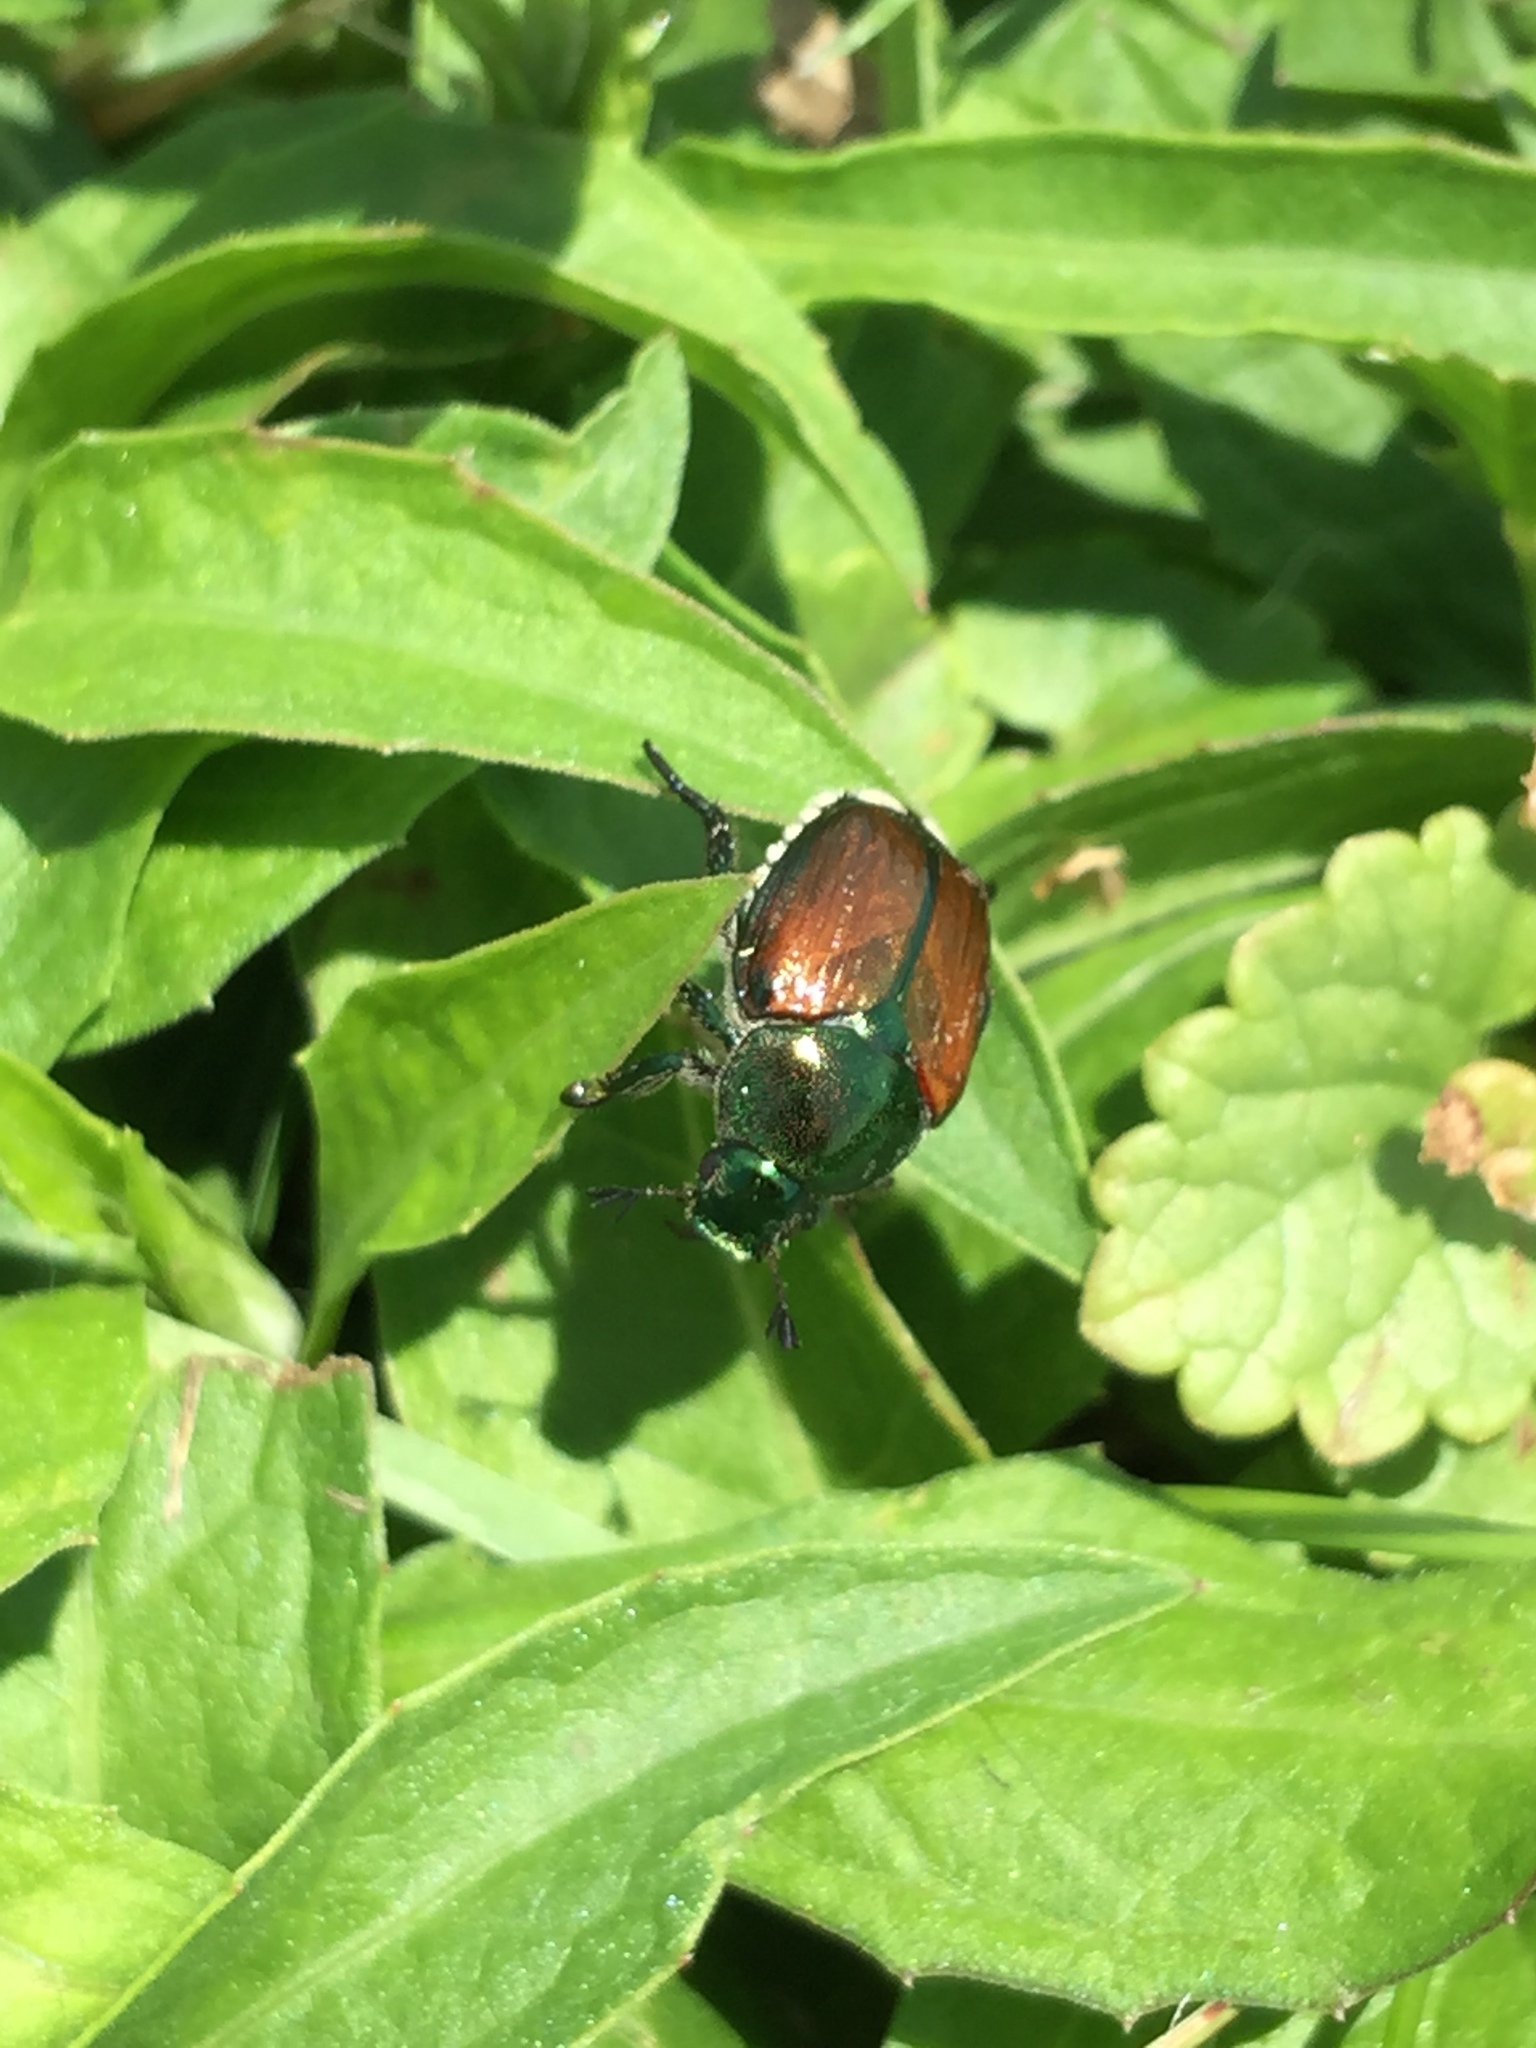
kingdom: Animalia
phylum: Arthropoda
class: Insecta
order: Coleoptera
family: Scarabaeidae
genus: Popillia
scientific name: Popillia japonica
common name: Japanese beetle
